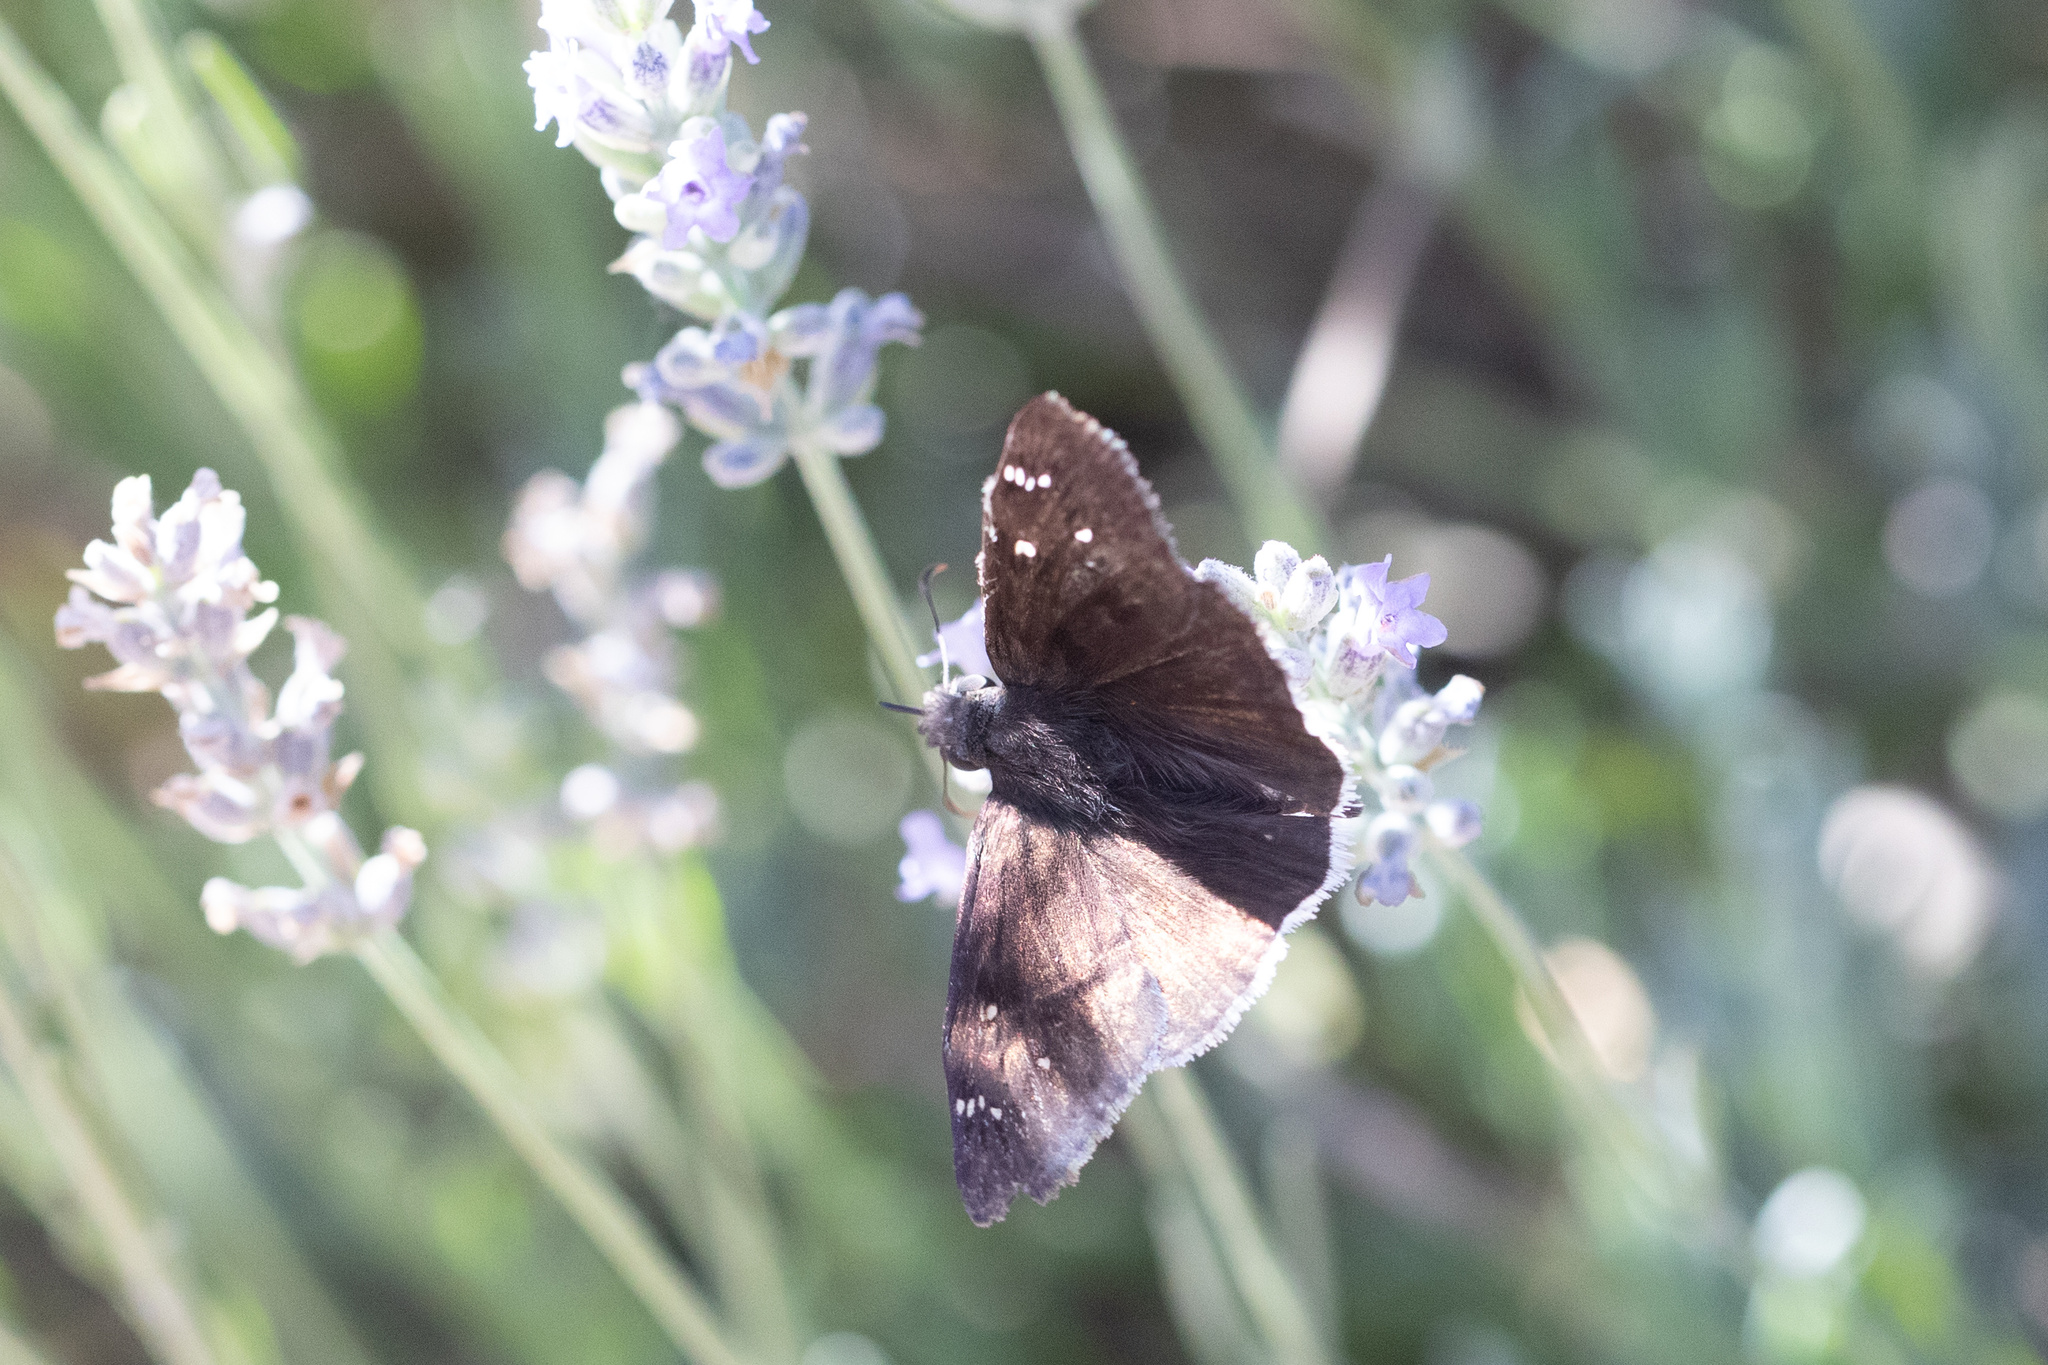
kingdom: Animalia
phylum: Arthropoda
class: Insecta
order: Lepidoptera
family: Hesperiidae
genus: Erynnis
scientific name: Erynnis tristis
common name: Mournful duskywing
